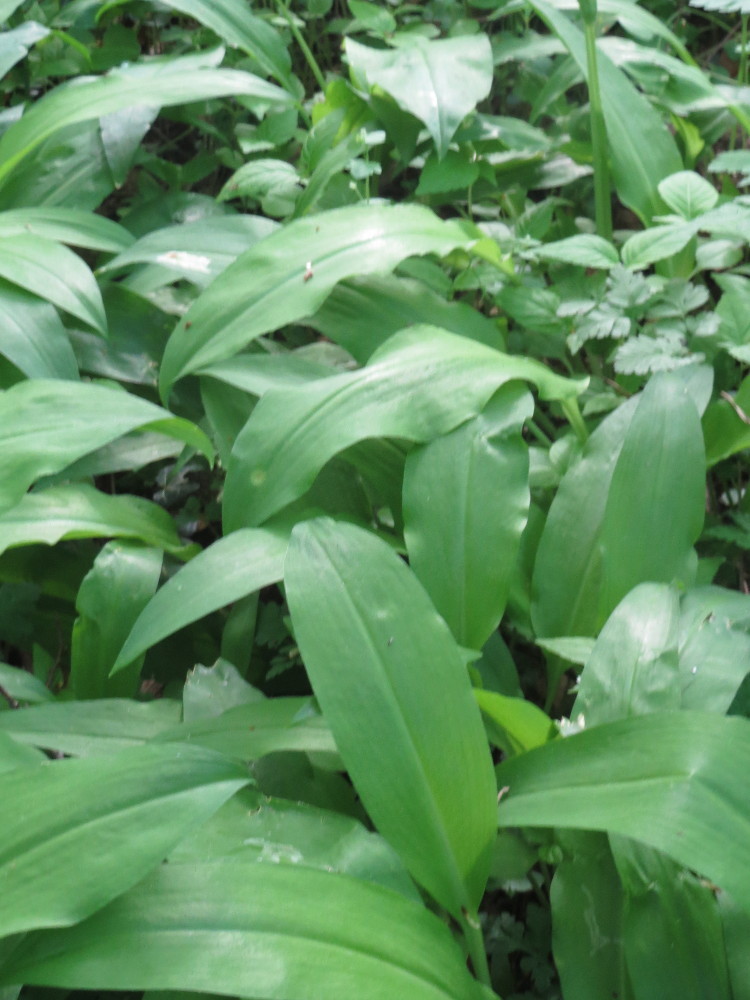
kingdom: Plantae
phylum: Tracheophyta
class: Liliopsida
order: Asparagales
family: Amaryllidaceae
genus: Allium
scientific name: Allium ursinum
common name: Ramsons
